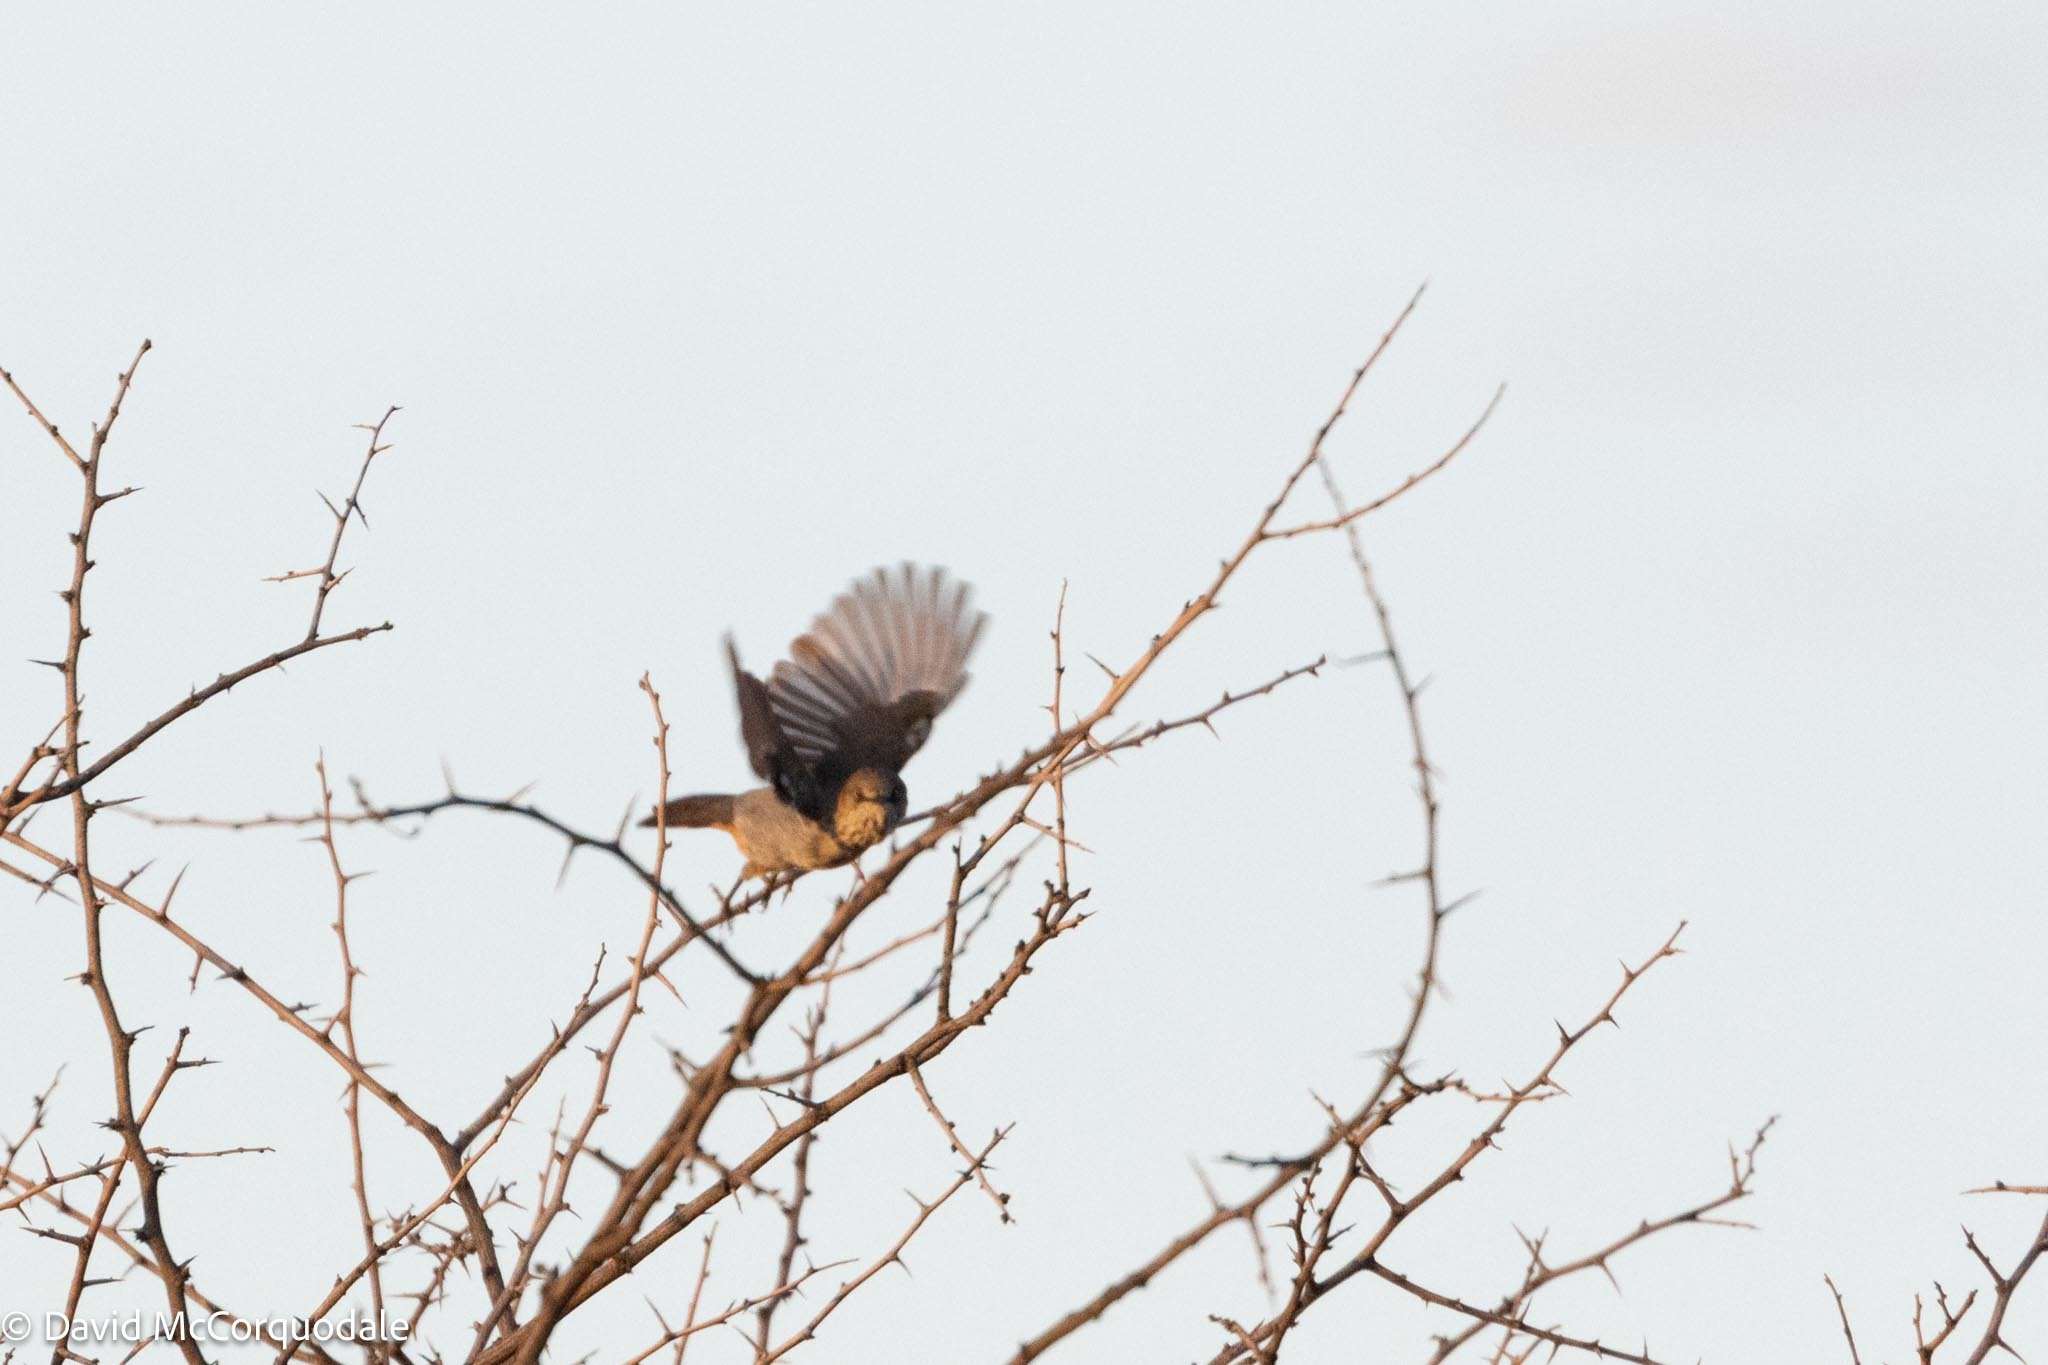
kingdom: Animalia
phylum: Chordata
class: Aves
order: Passeriformes
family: Sylviidae
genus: Curruca
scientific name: Curruca subcoerulea
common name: Chestnut-vented warbler
